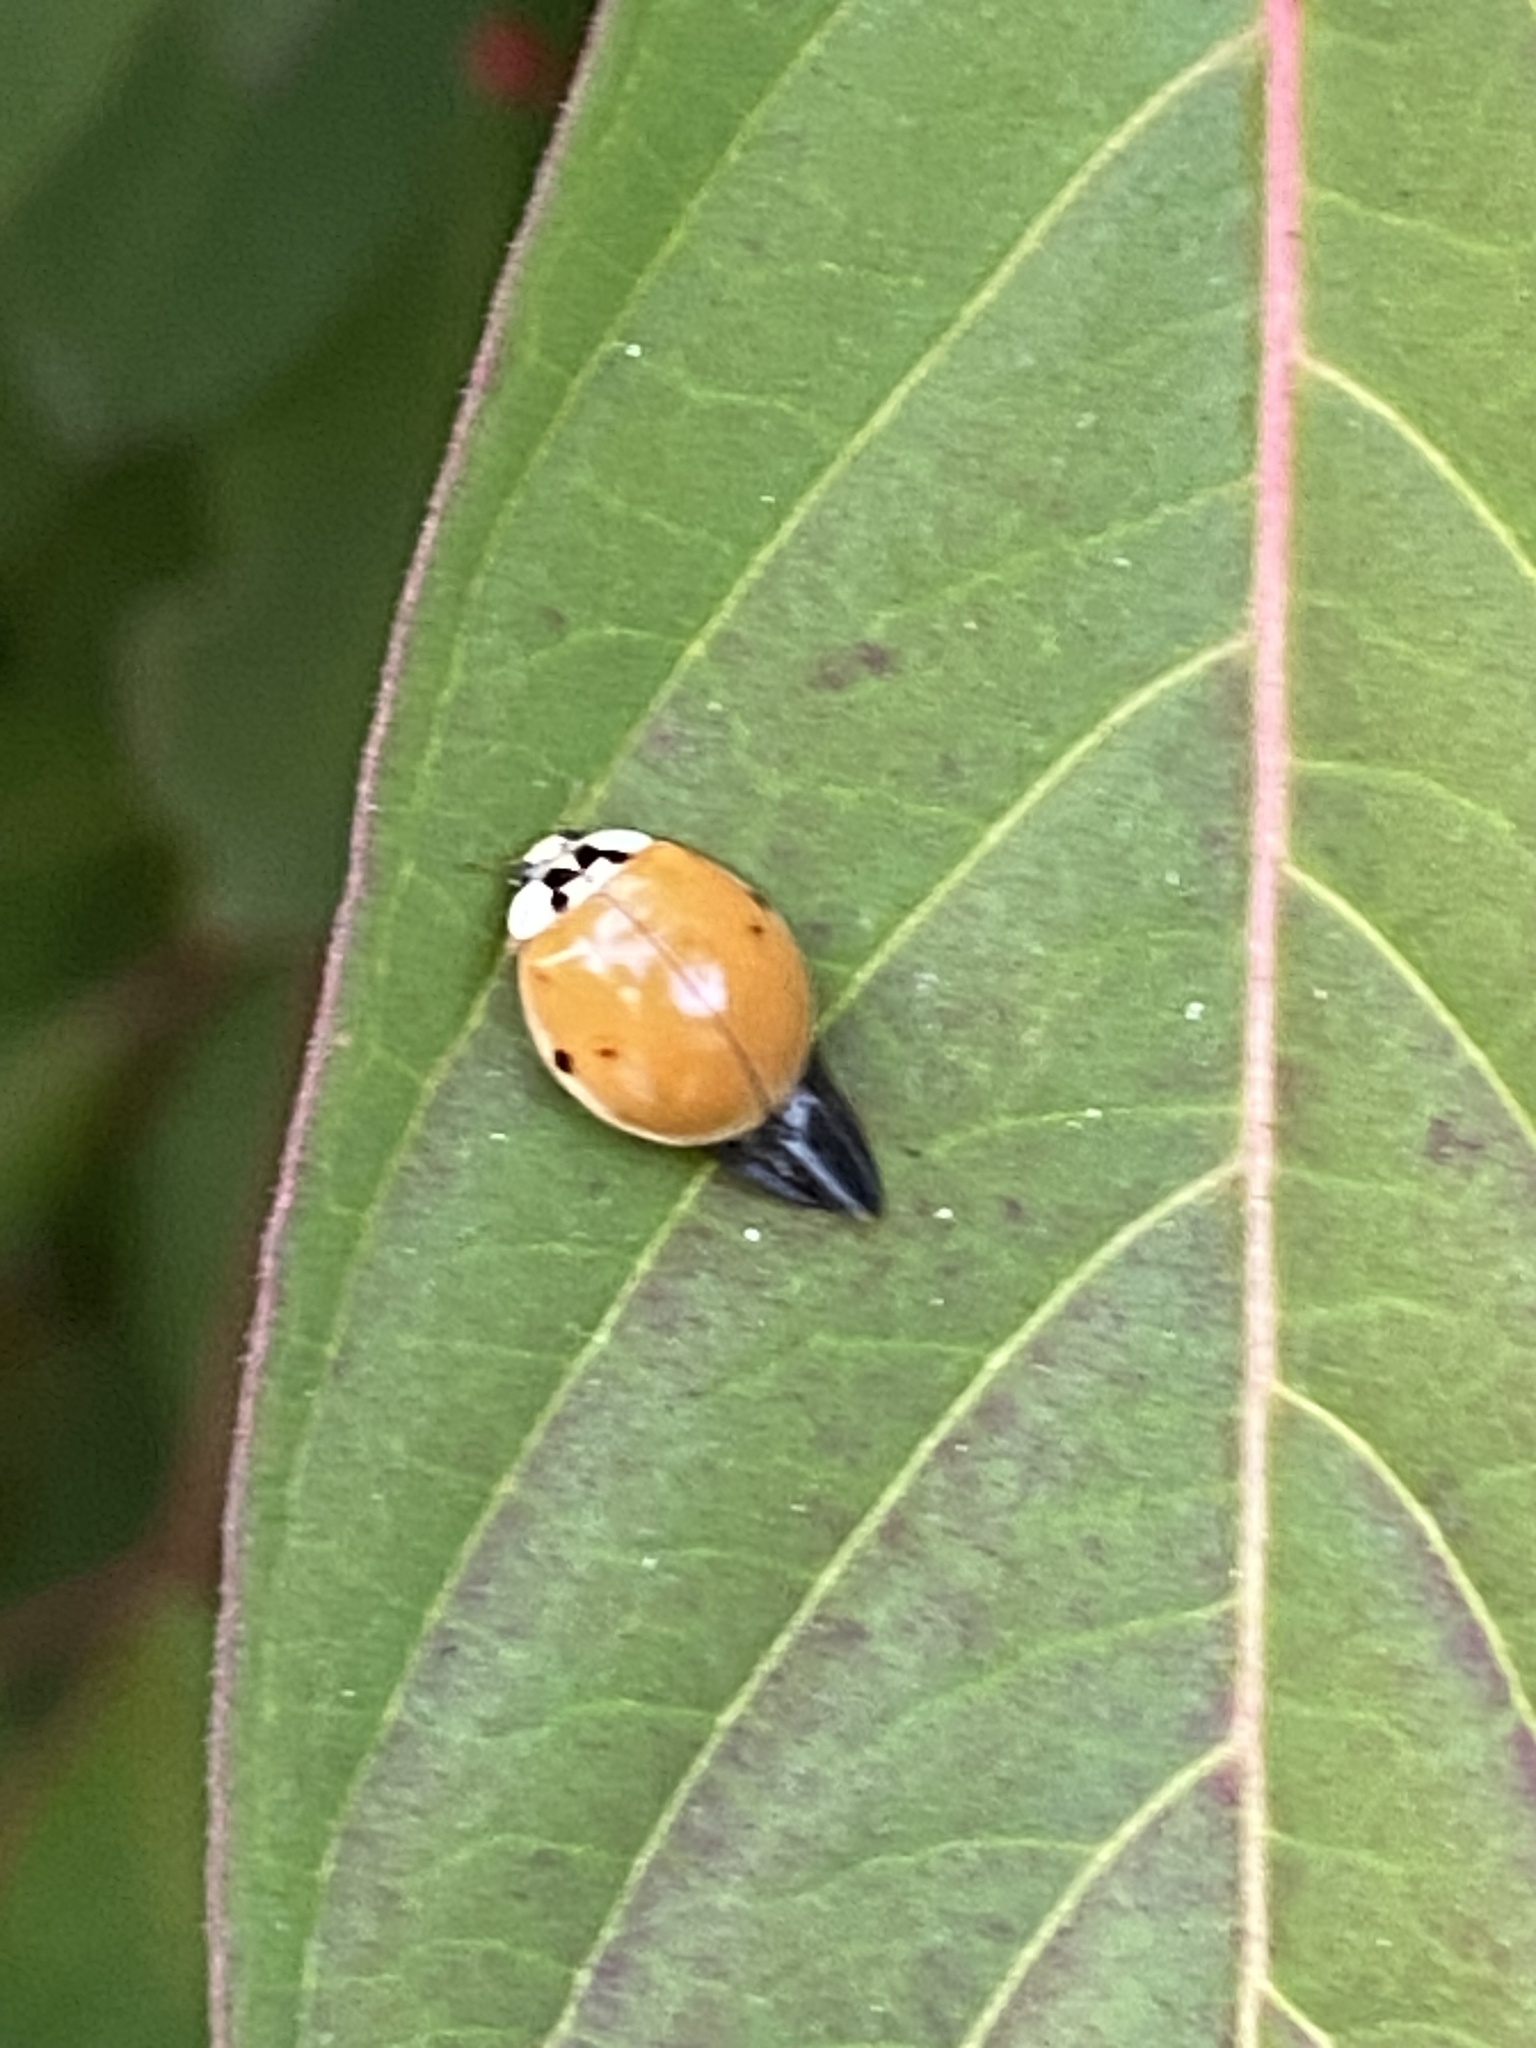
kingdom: Animalia
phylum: Arthropoda
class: Insecta
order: Coleoptera
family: Coccinellidae
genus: Harmonia
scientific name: Harmonia axyridis
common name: Harlequin ladybird
